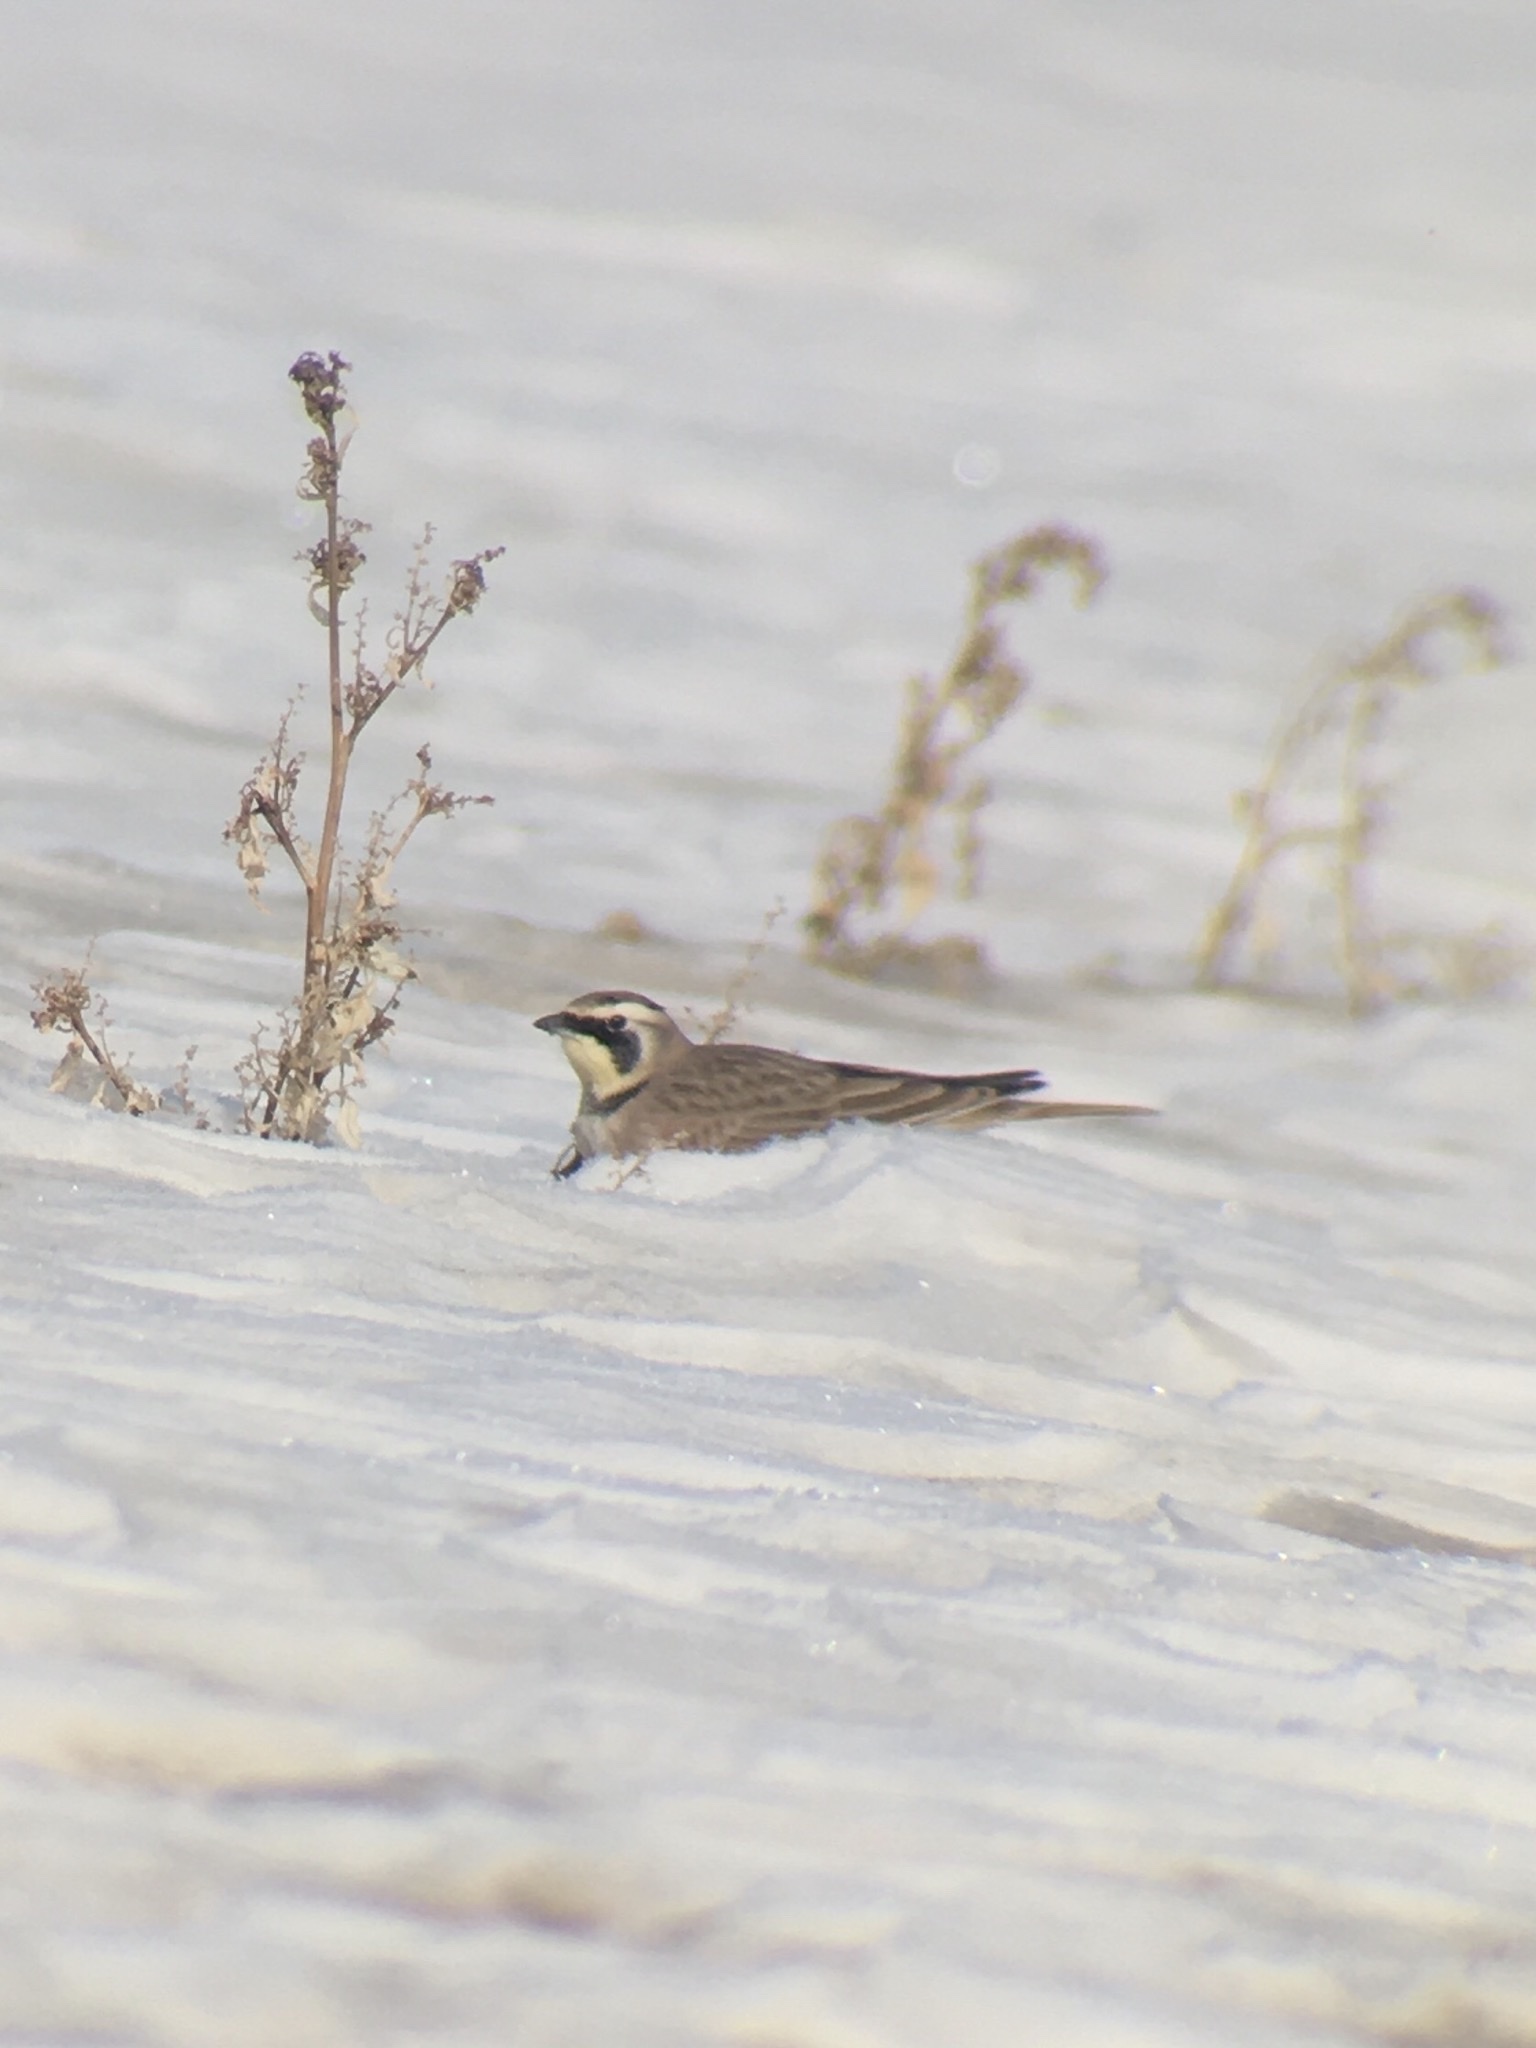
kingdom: Animalia
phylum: Chordata
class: Aves
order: Passeriformes
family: Alaudidae
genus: Eremophila
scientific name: Eremophila alpestris
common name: Horned lark
